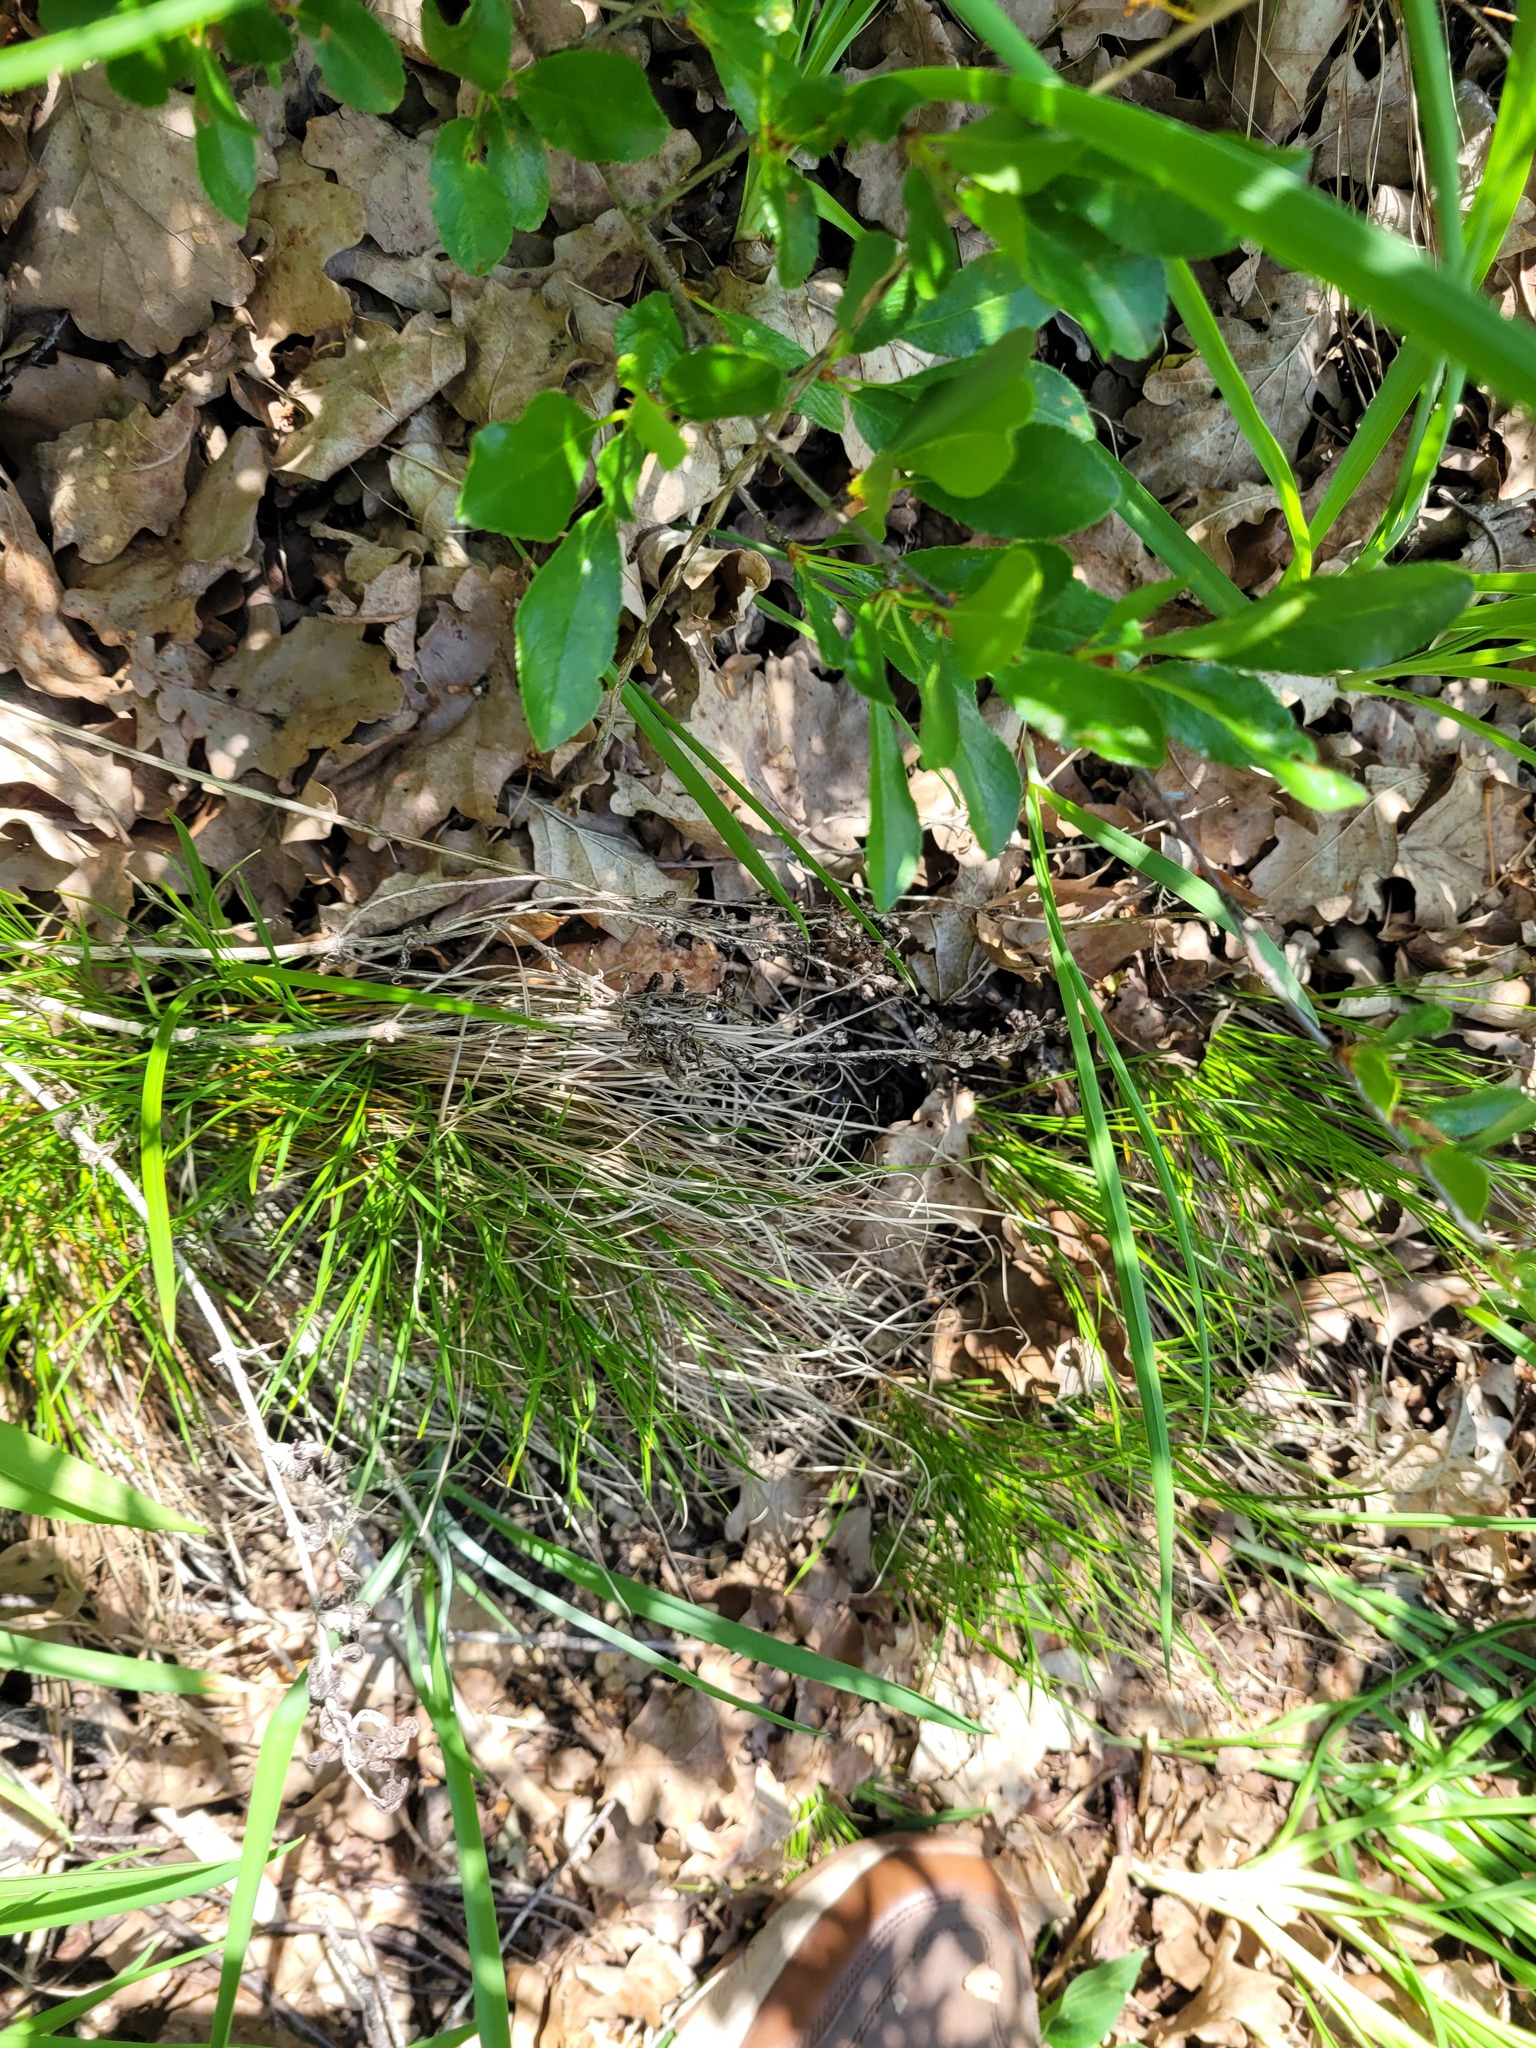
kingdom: Plantae
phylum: Tracheophyta
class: Liliopsida
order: Poales
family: Cyperaceae
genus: Carex
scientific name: Carex humilis
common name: Dwarf sedge
